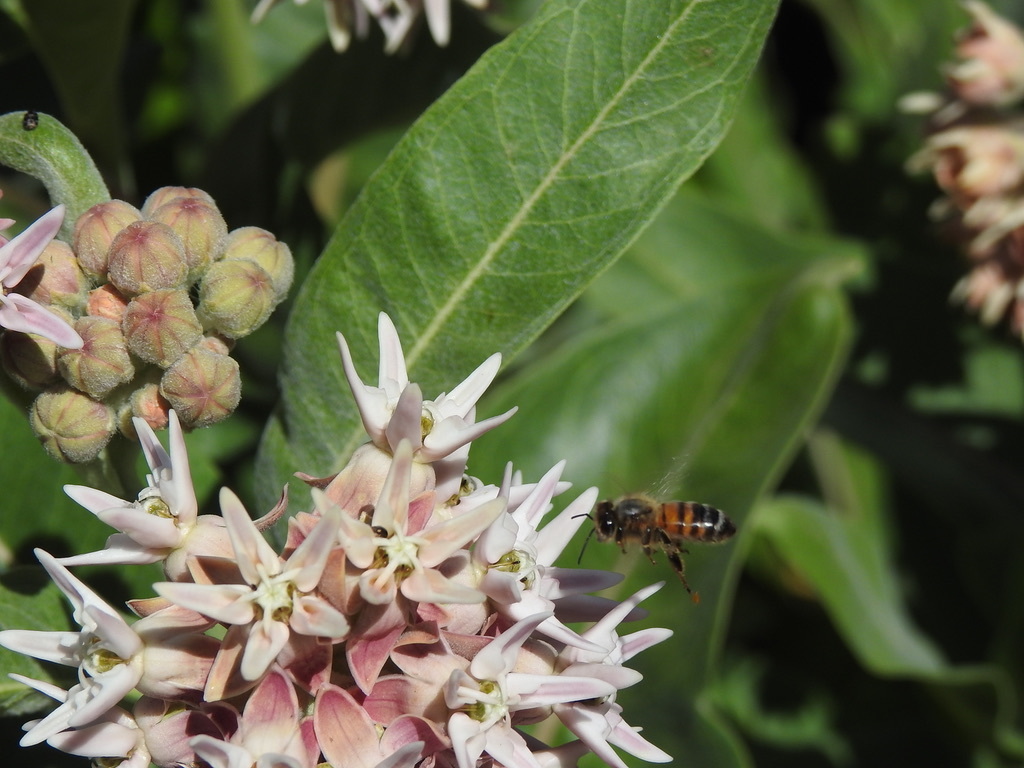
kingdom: Animalia
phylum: Arthropoda
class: Insecta
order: Hymenoptera
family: Apidae
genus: Apis
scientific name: Apis mellifera
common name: Honey bee
